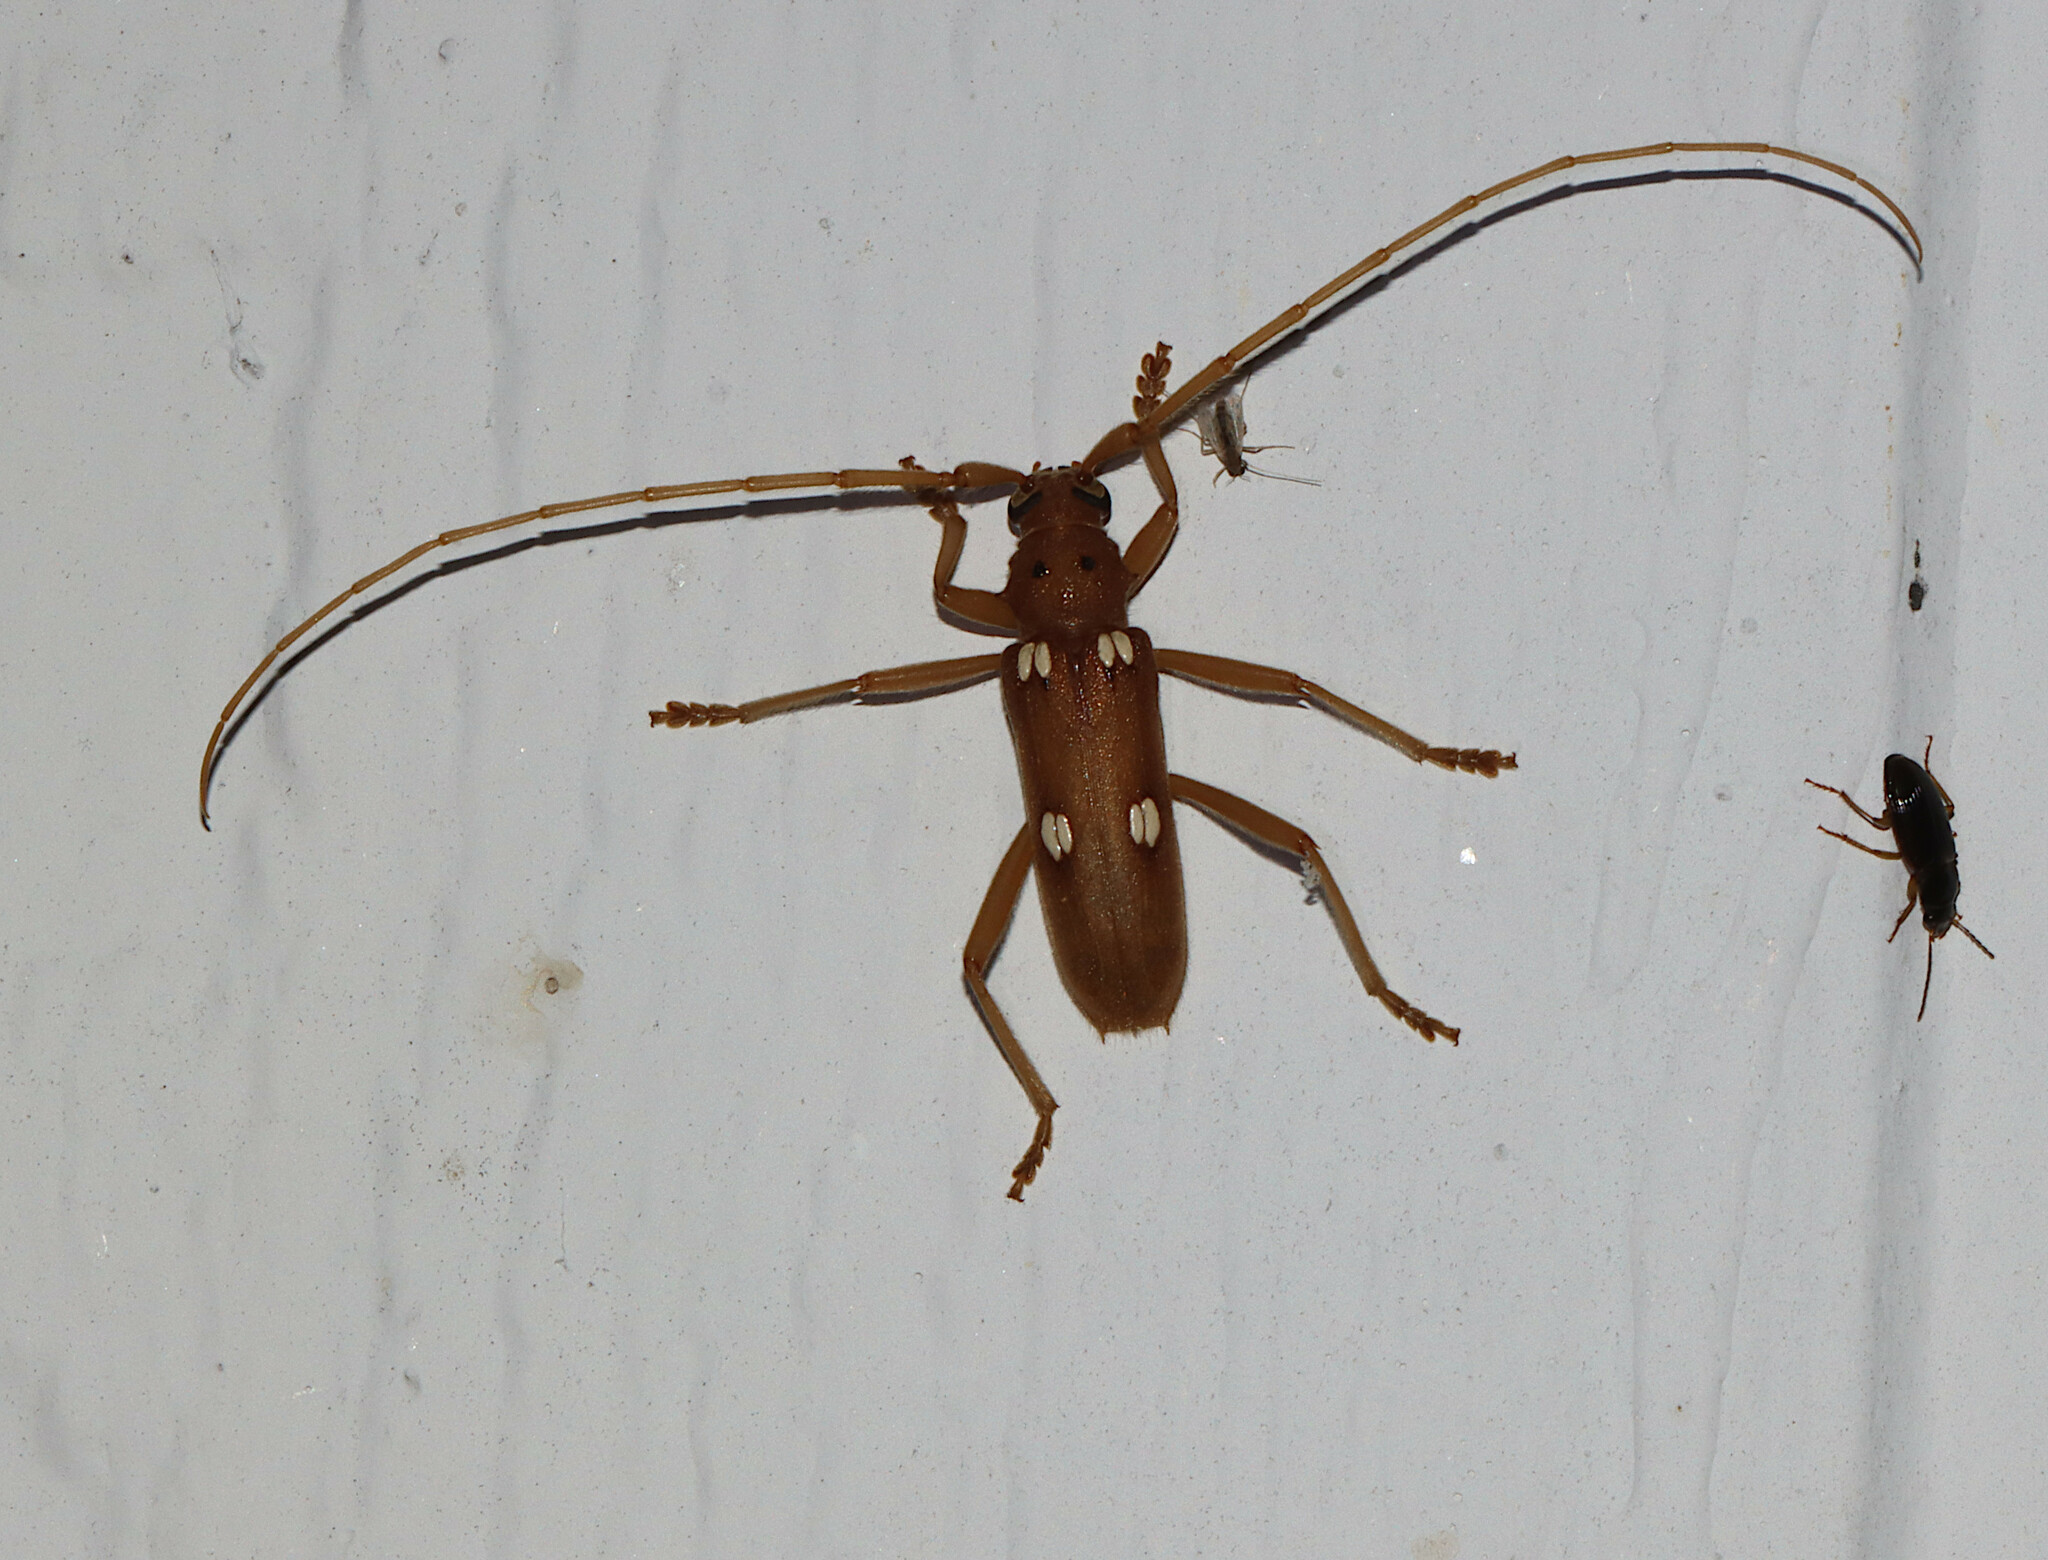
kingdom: Animalia
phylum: Arthropoda
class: Insecta
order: Coleoptera
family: Cerambycidae
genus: Eburia
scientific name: Eburia quadrigeminata
